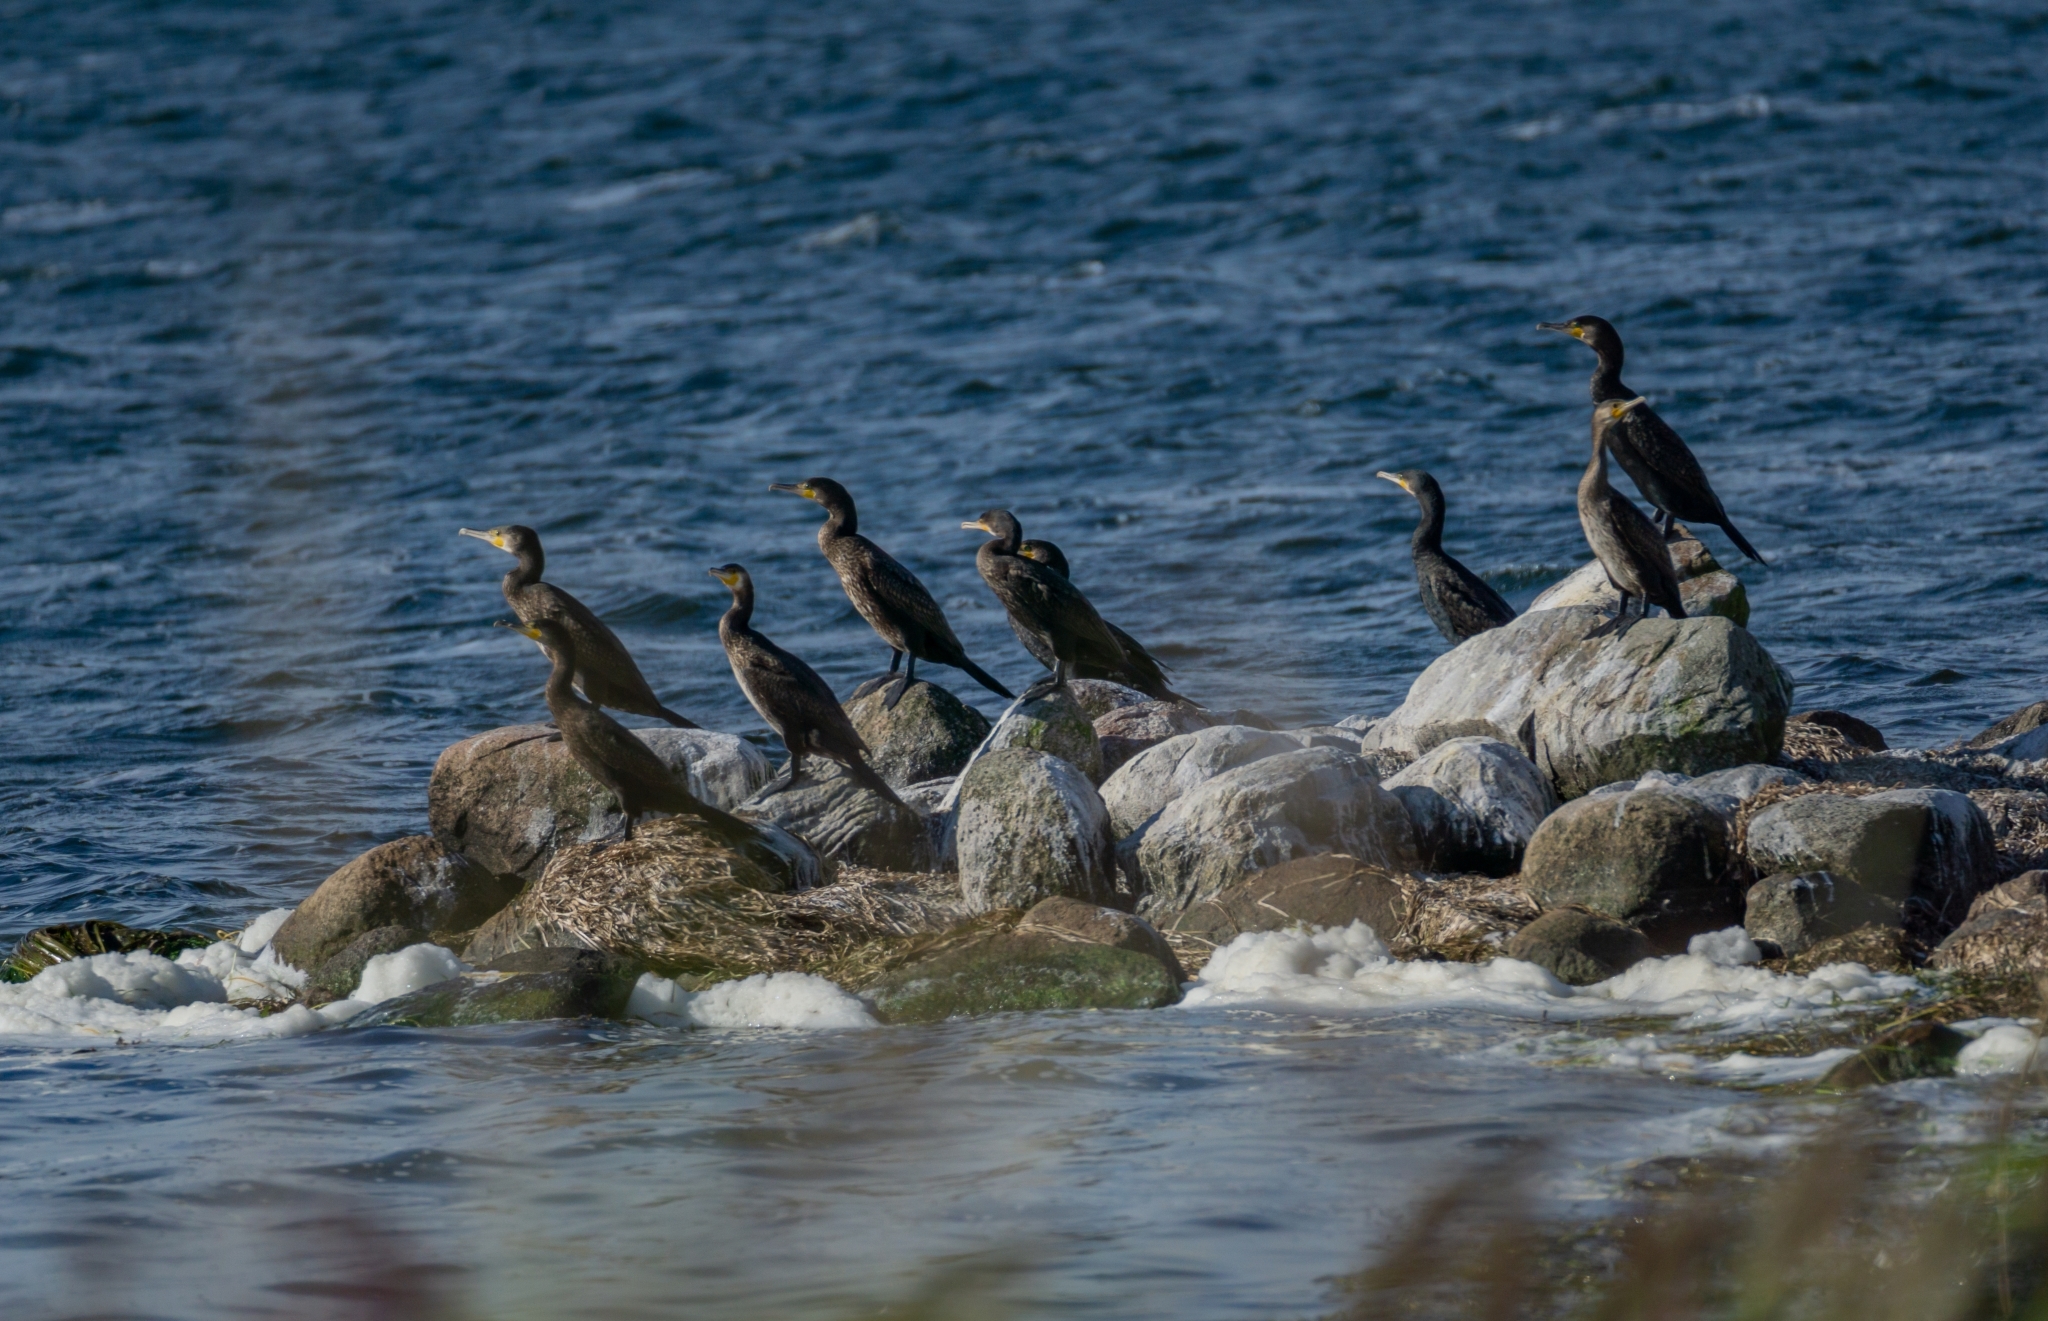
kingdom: Animalia
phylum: Chordata
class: Aves
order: Suliformes
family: Phalacrocoracidae
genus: Phalacrocorax
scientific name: Phalacrocorax carbo
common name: Great cormorant
